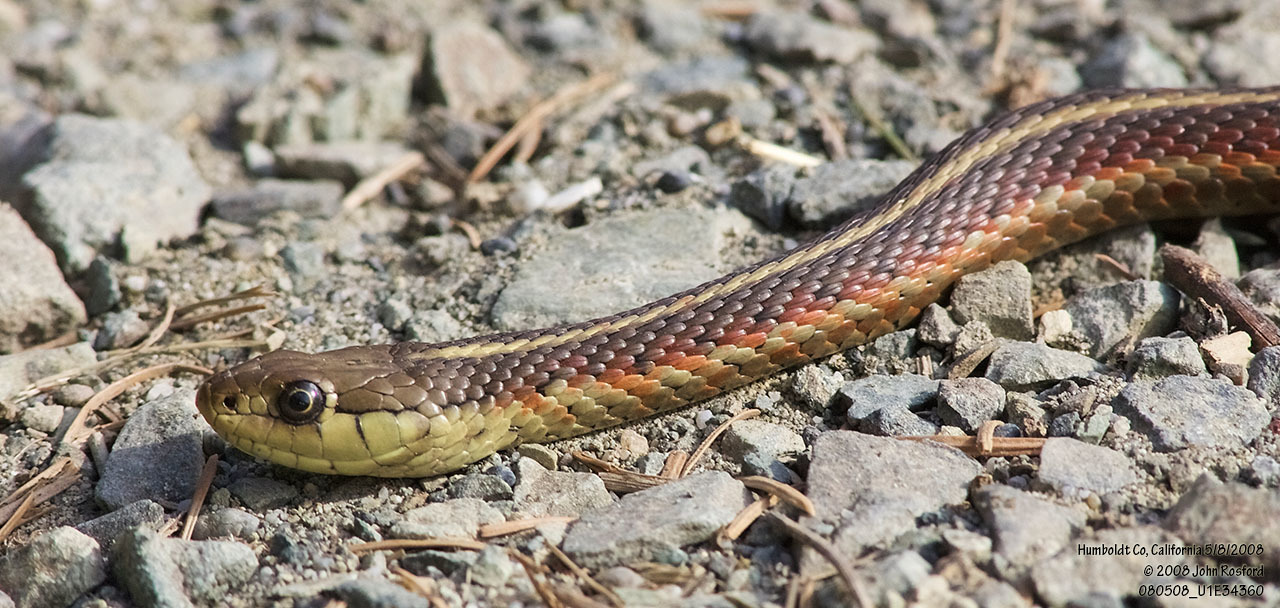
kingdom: Animalia
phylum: Chordata
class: Squamata
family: Colubridae
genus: Thamnophis
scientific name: Thamnophis elegans
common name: Western terrestrial garter snake
